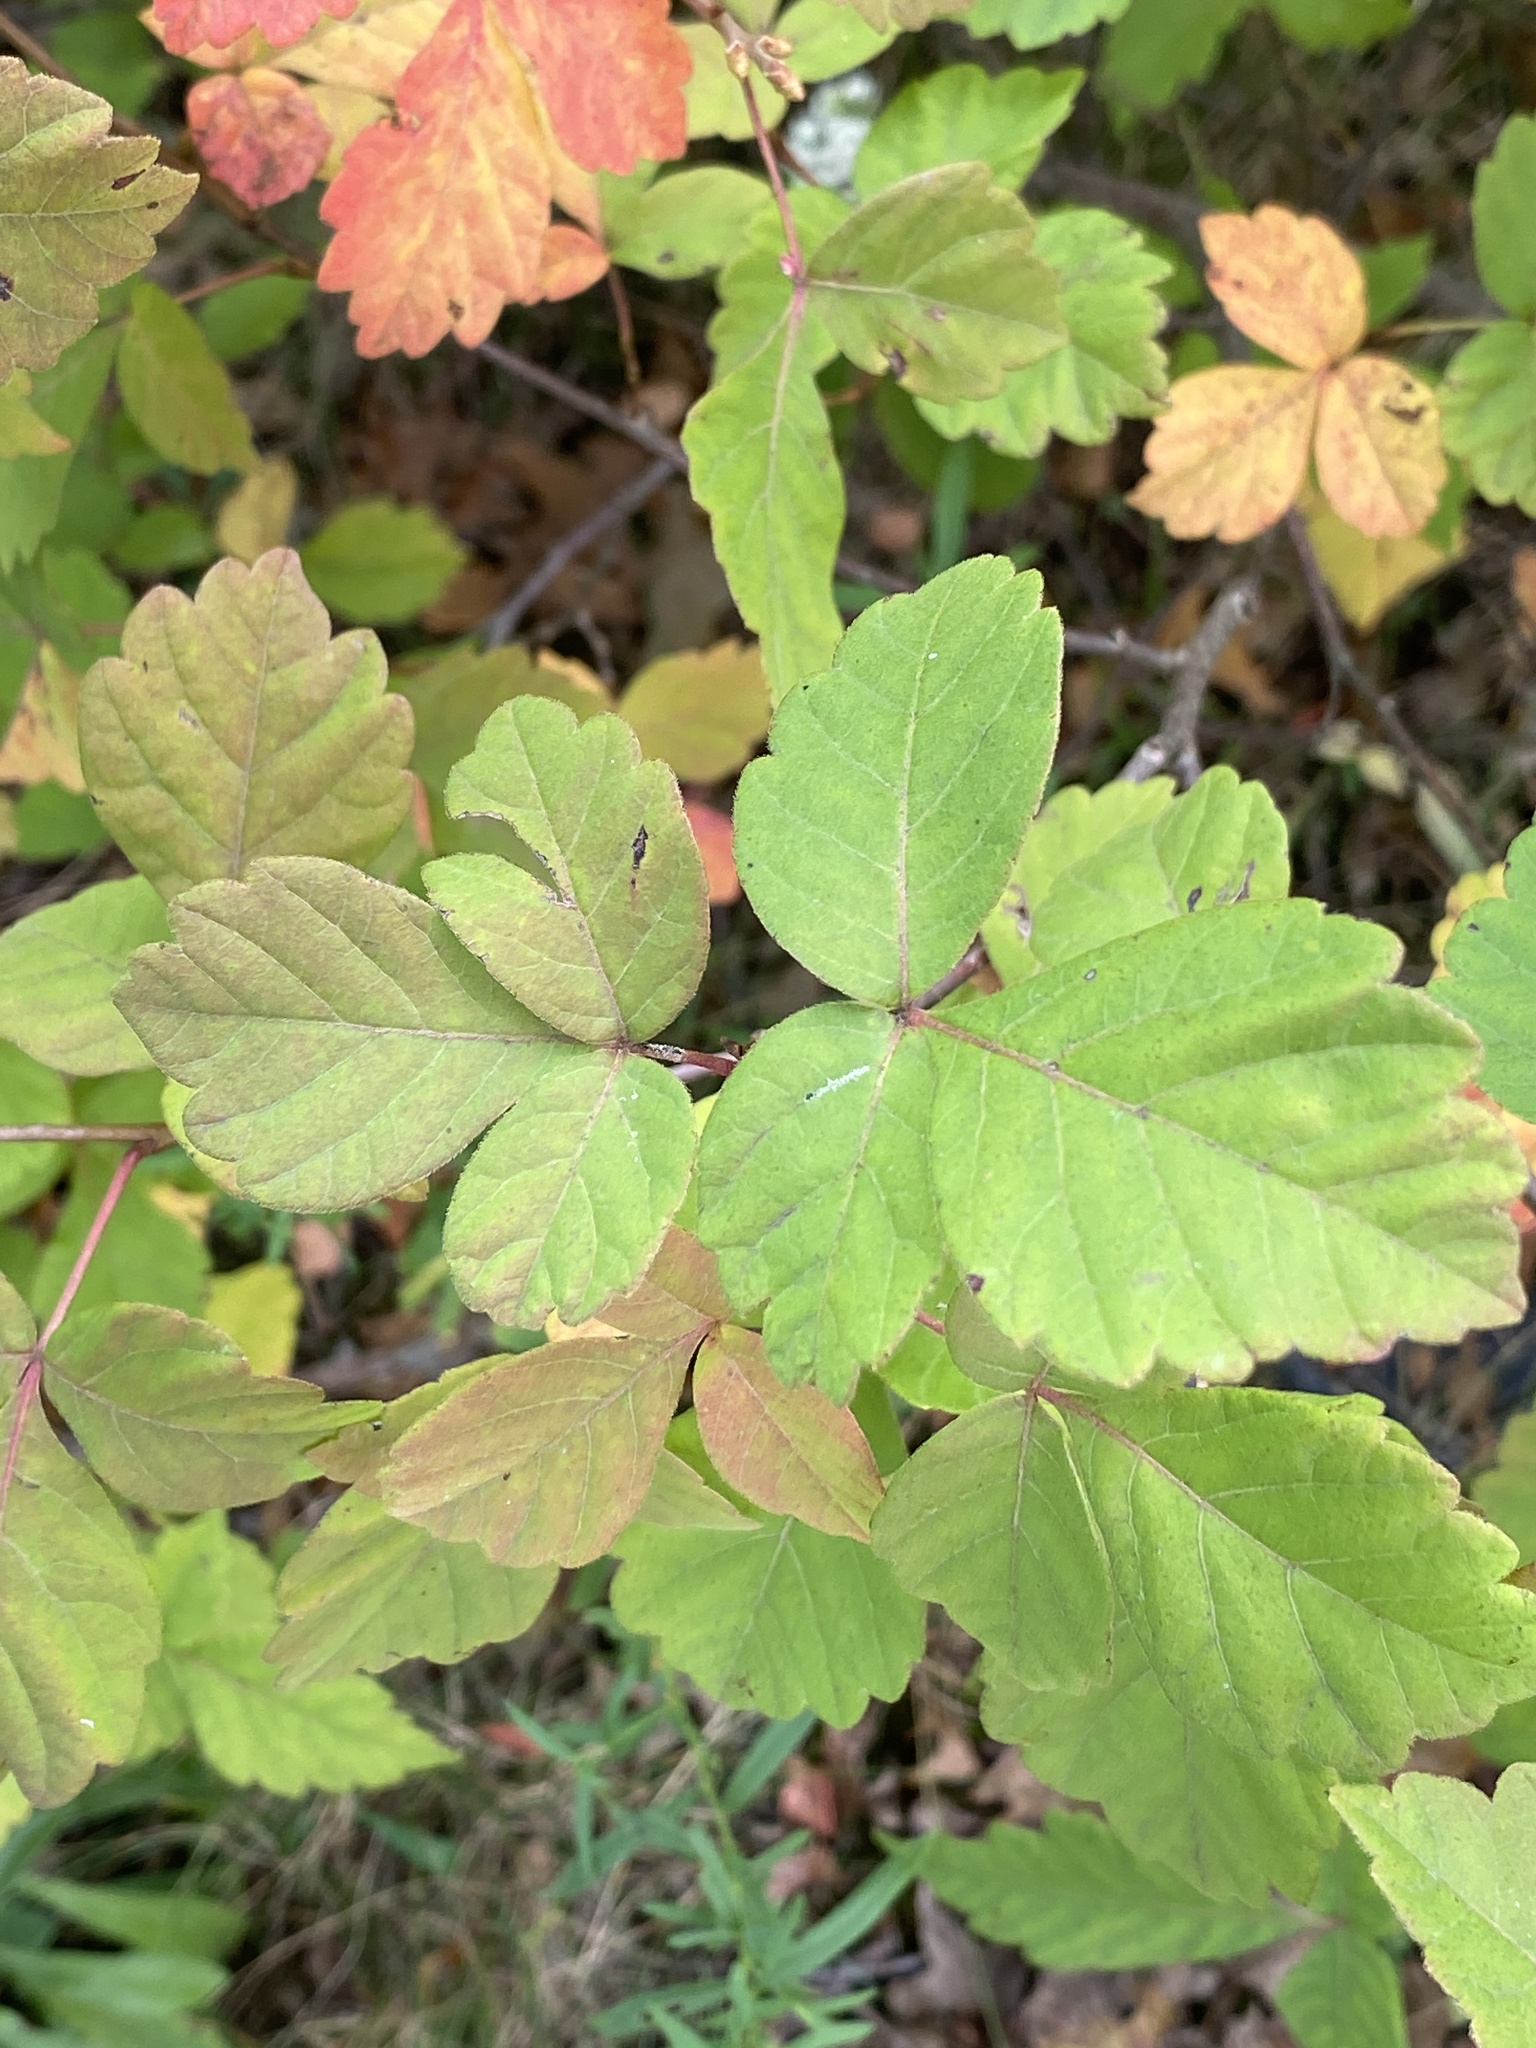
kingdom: Plantae
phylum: Tracheophyta
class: Magnoliopsida
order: Sapindales
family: Anacardiaceae
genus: Rhus
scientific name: Rhus aromatica
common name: Aromatic sumac
